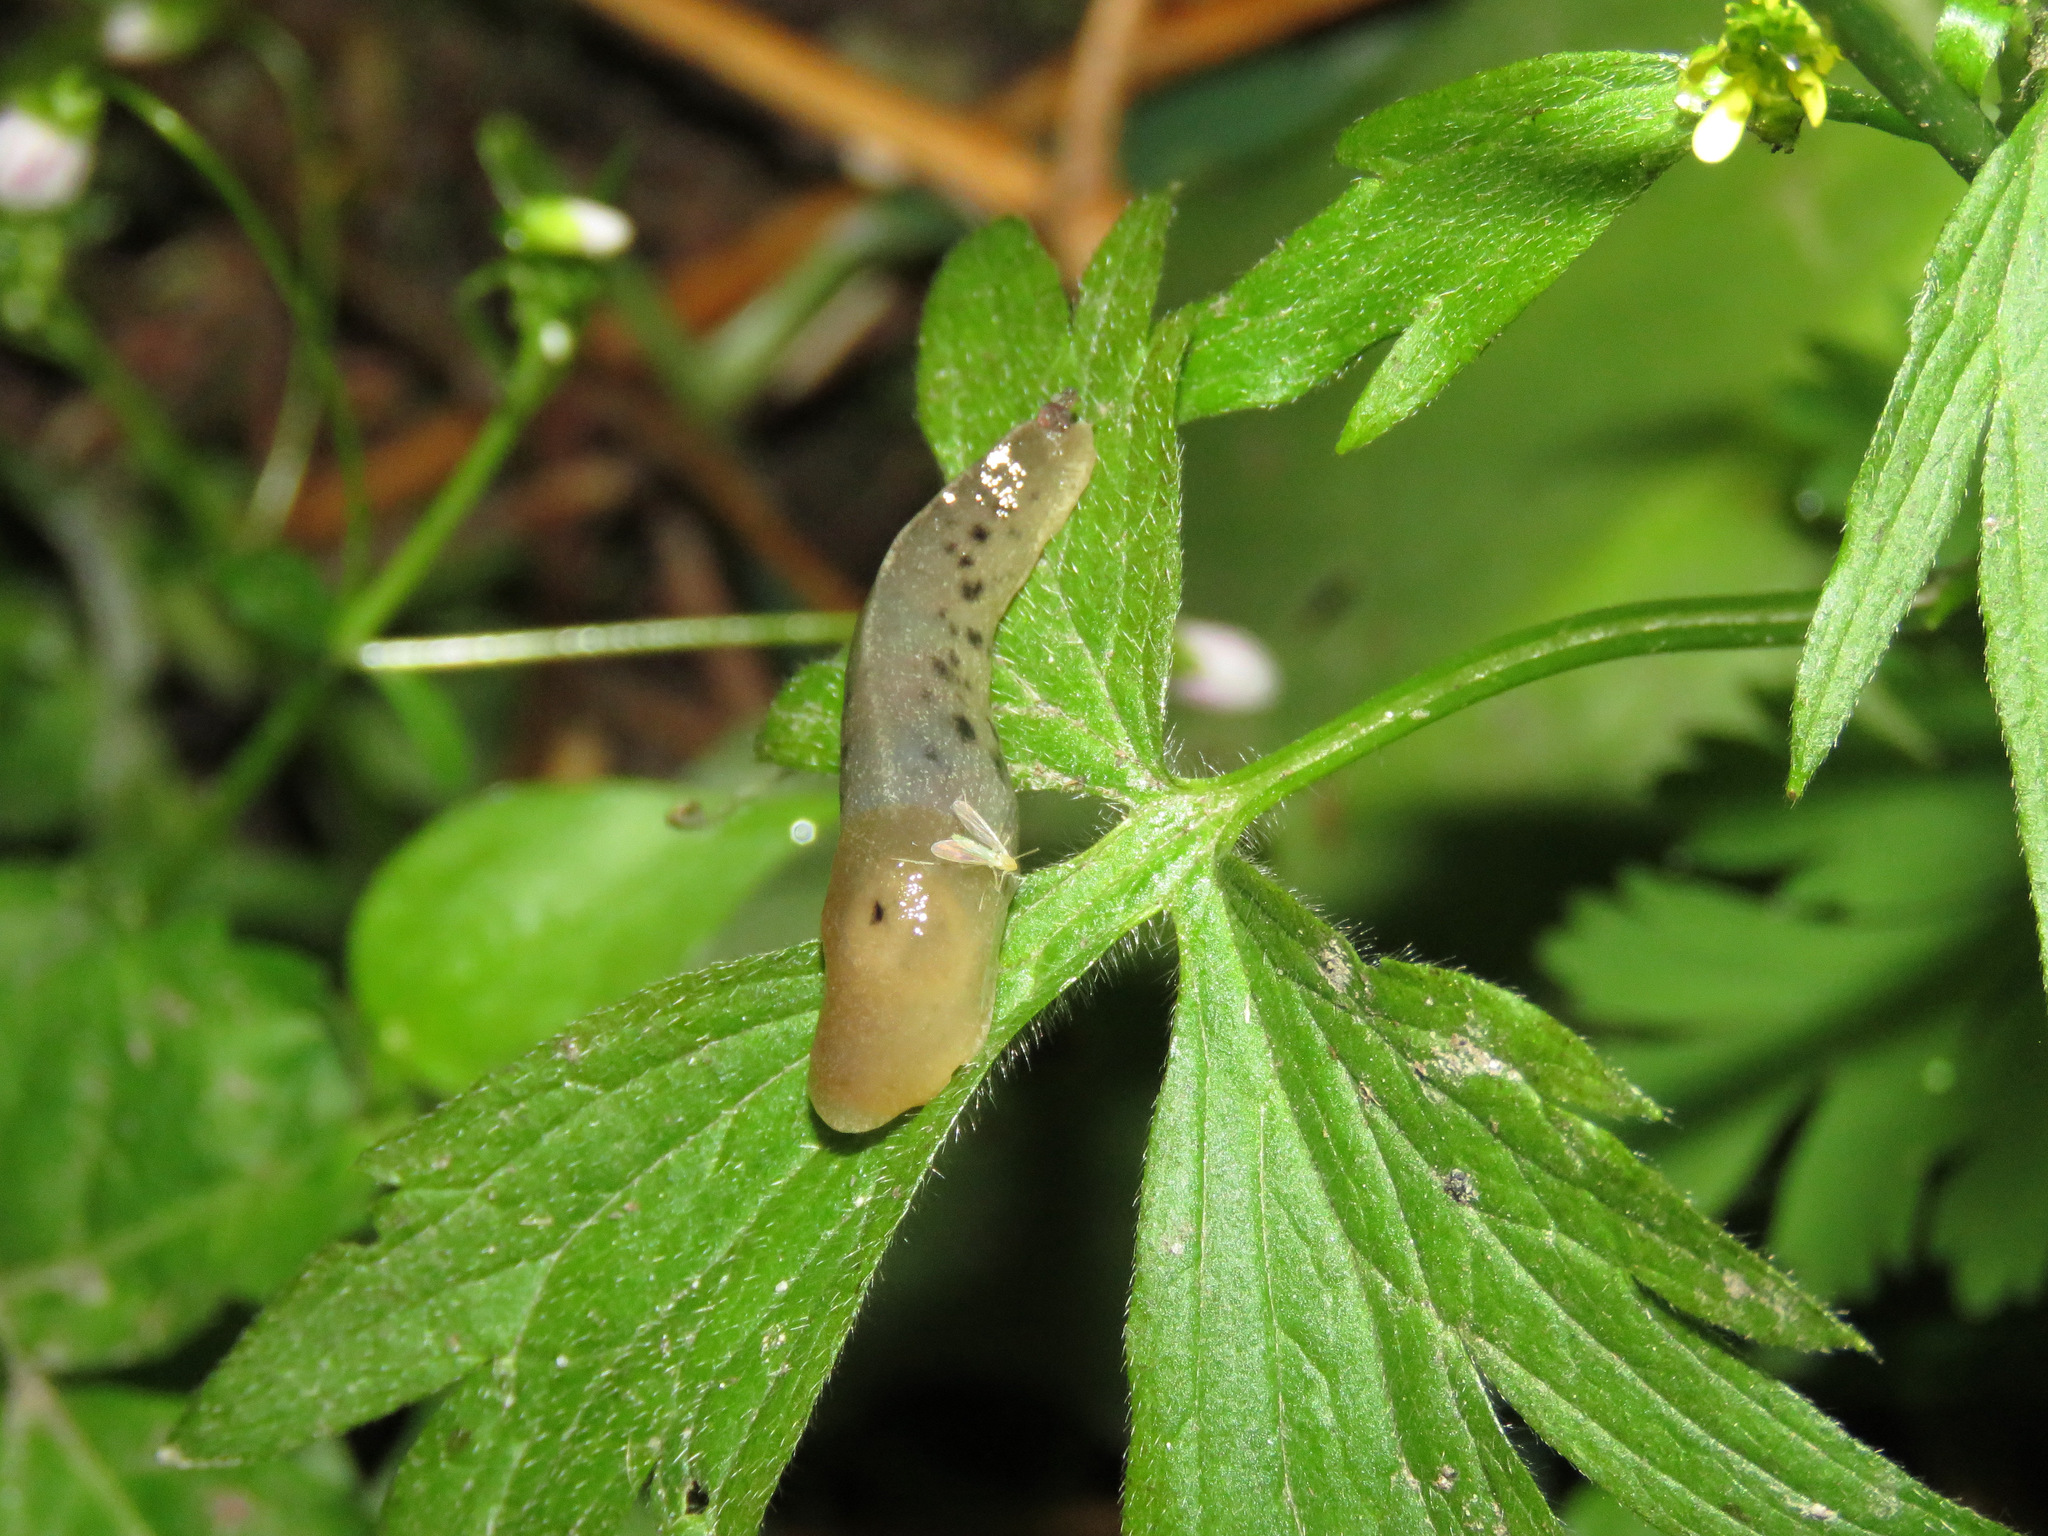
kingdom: Animalia
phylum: Mollusca
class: Gastropoda
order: Stylommatophora
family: Ariolimacidae
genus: Ariolimax
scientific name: Ariolimax columbianus
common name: Pacific banana slug
